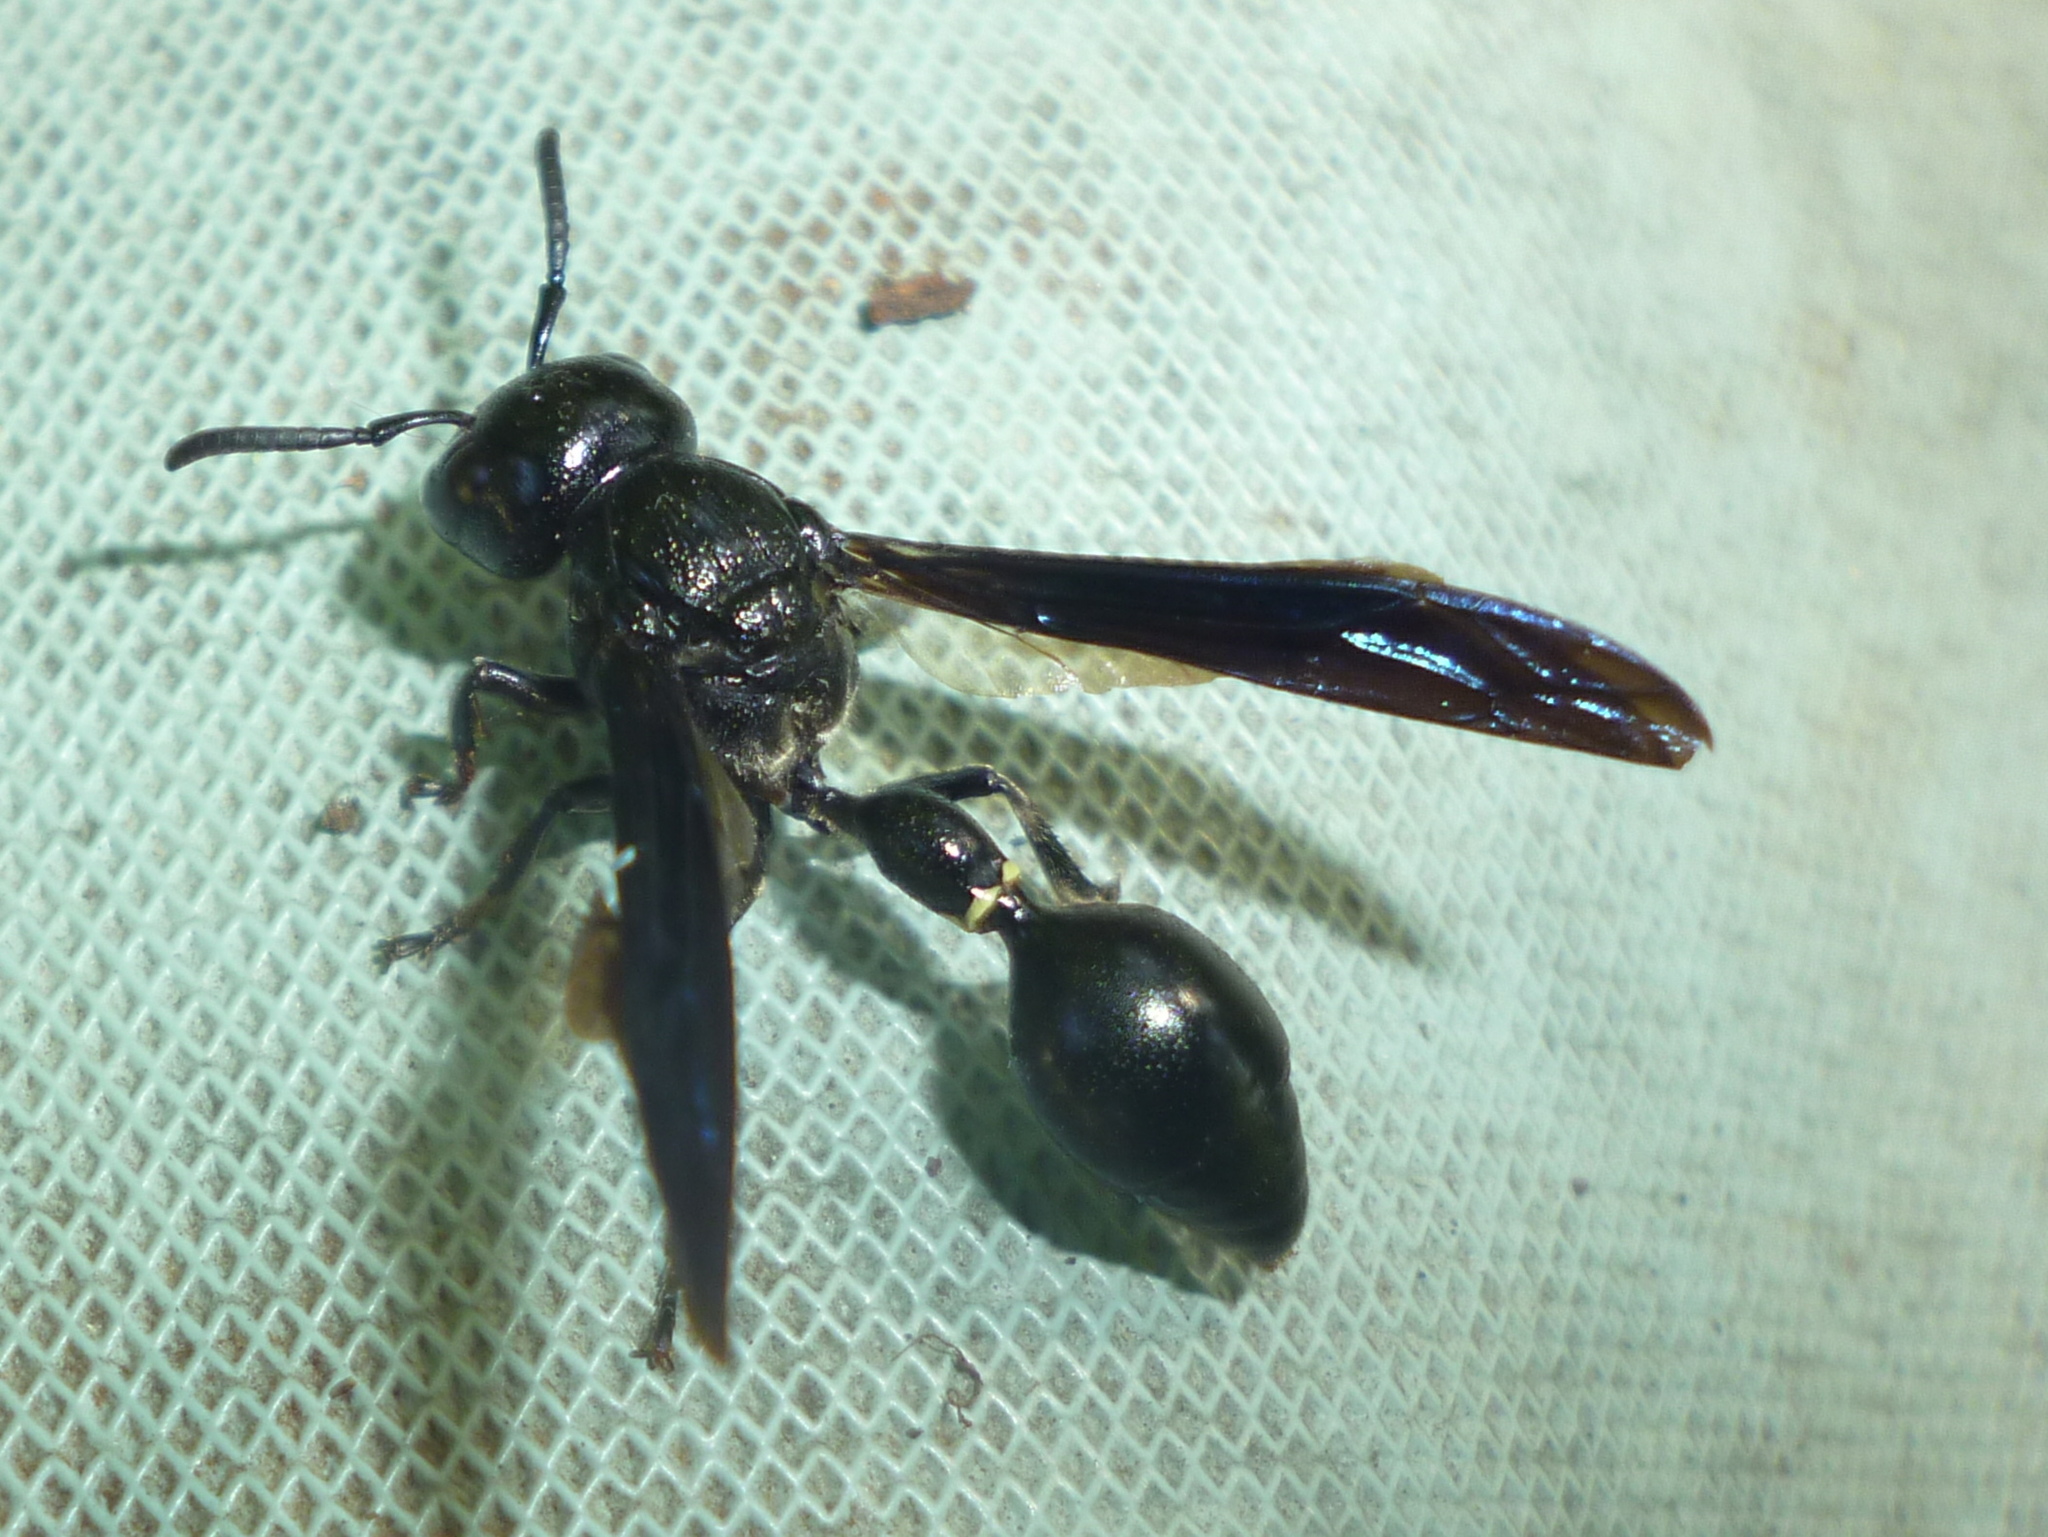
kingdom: Animalia
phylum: Arthropoda
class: Insecta
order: Hymenoptera
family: Eumenidae
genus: Zethus
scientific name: Zethus spinipes
